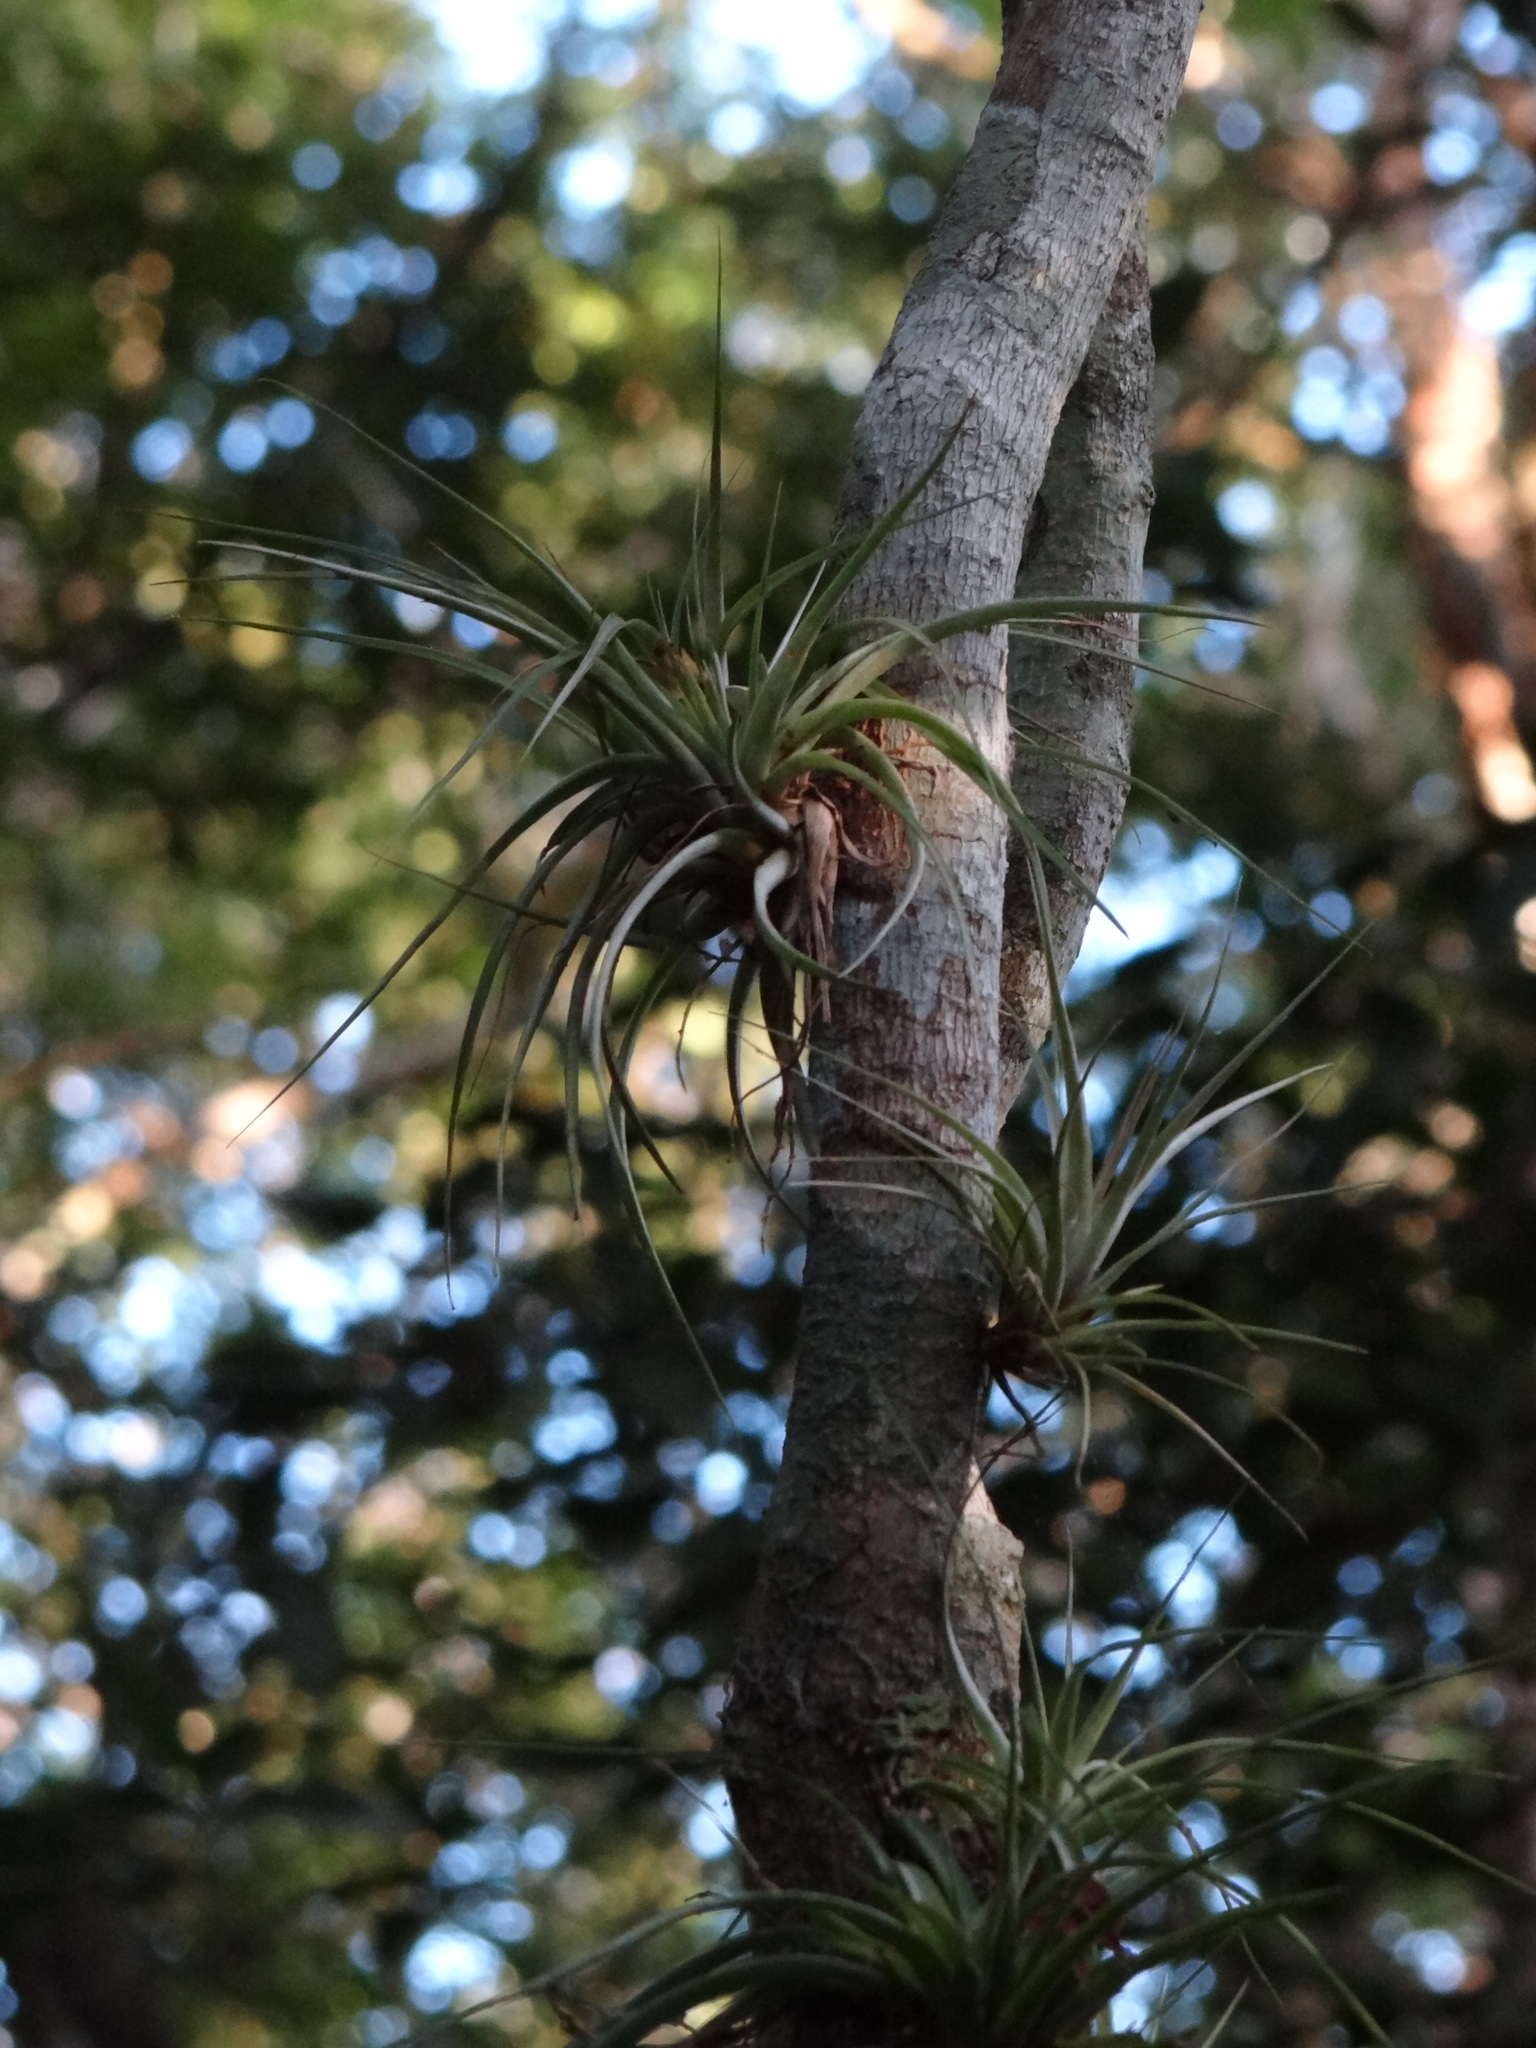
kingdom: Plantae
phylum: Tracheophyta
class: Liliopsida
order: Poales
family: Bromeliaceae
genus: Tillandsia
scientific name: Tillandsia fasciculata
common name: Giant airplant
